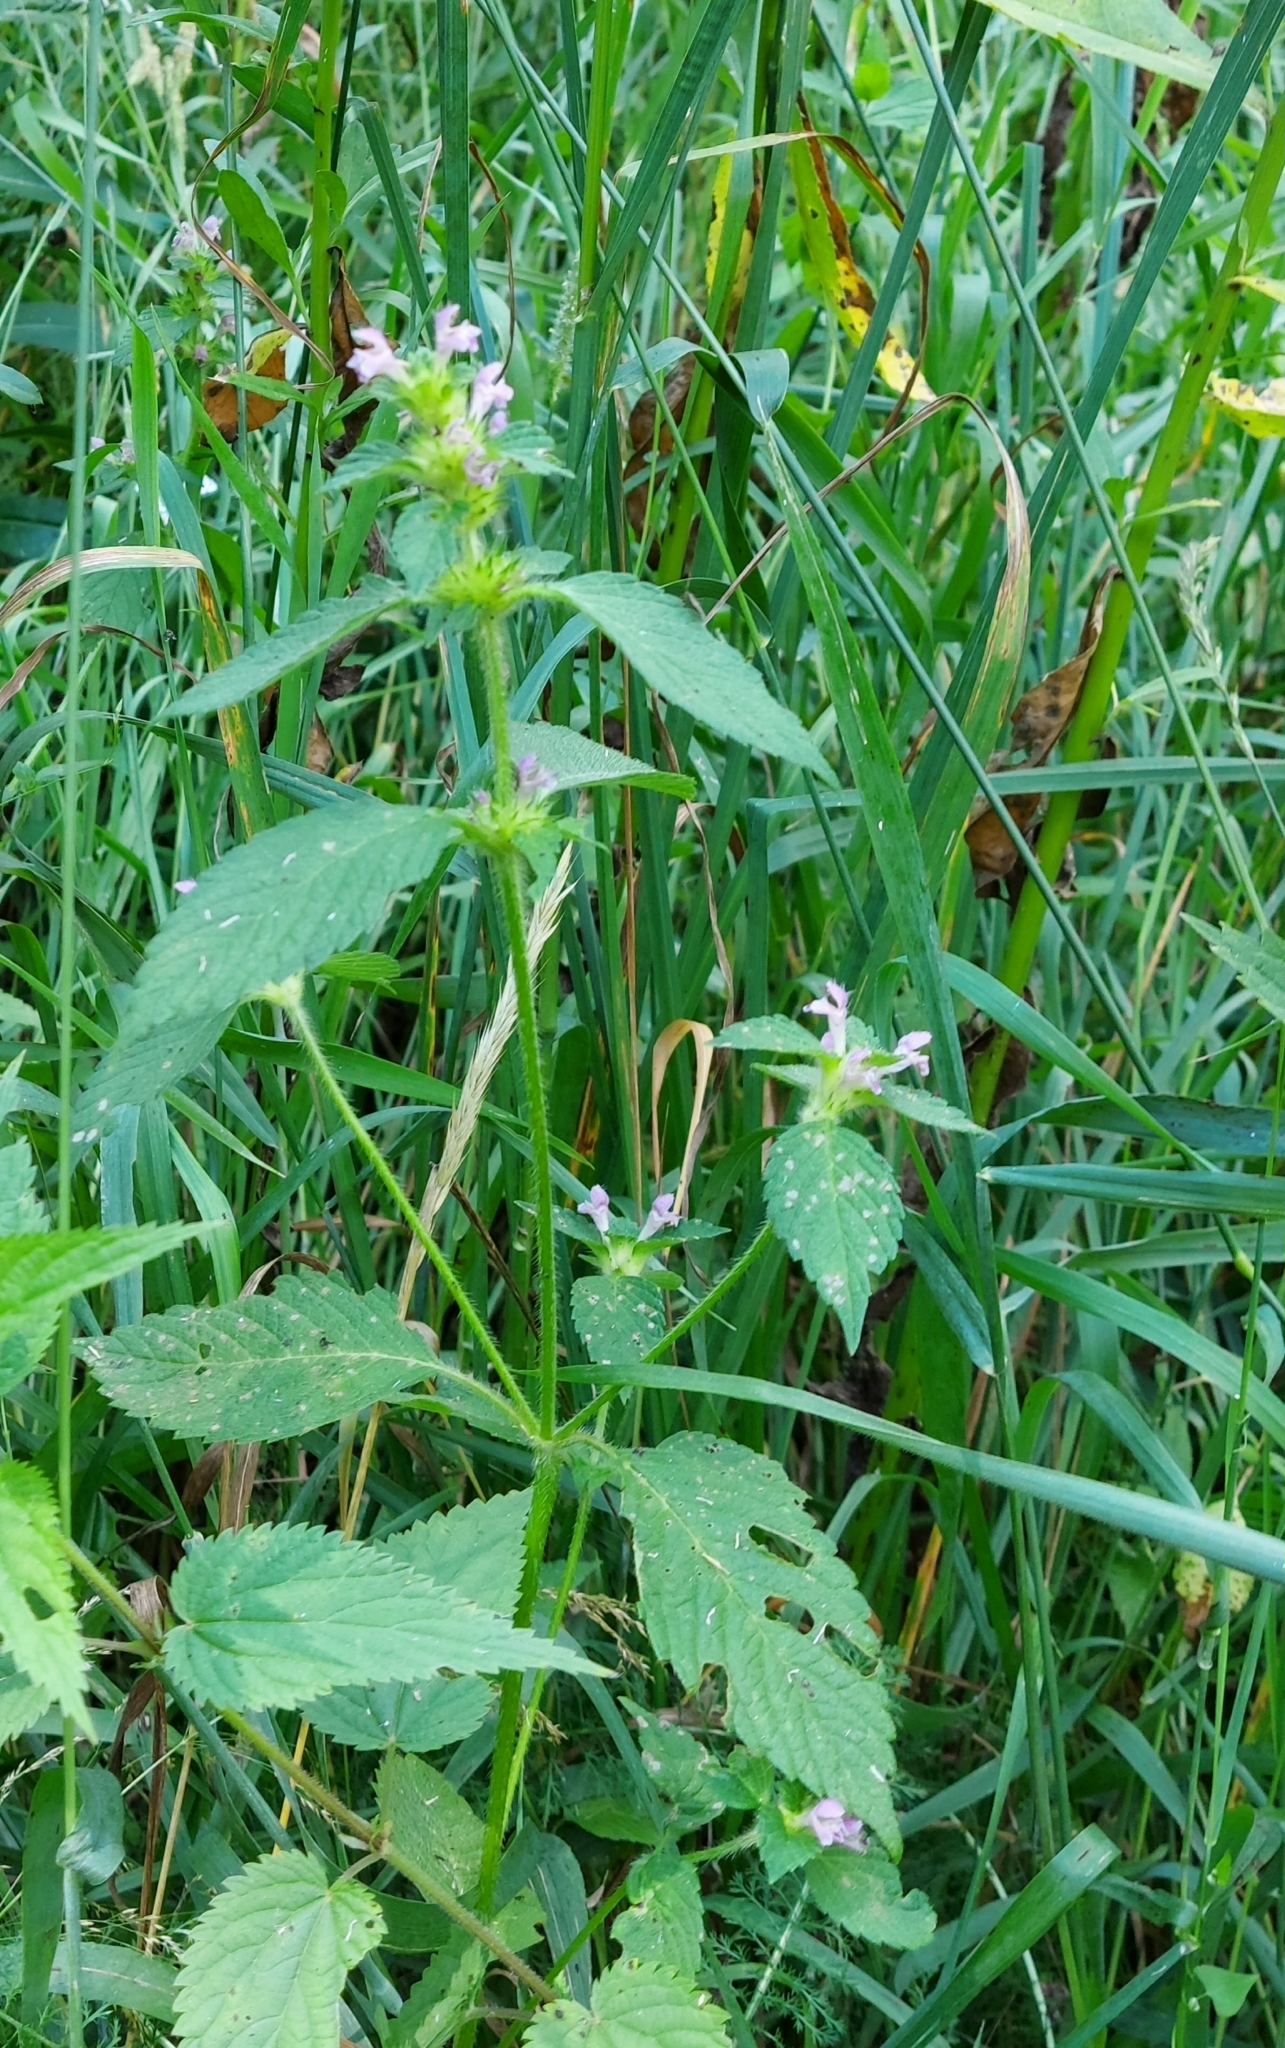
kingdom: Plantae
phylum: Tracheophyta
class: Magnoliopsida
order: Lamiales
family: Lamiaceae
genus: Galeopsis
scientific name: Galeopsis bifida
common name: Bifid hemp-nettle
